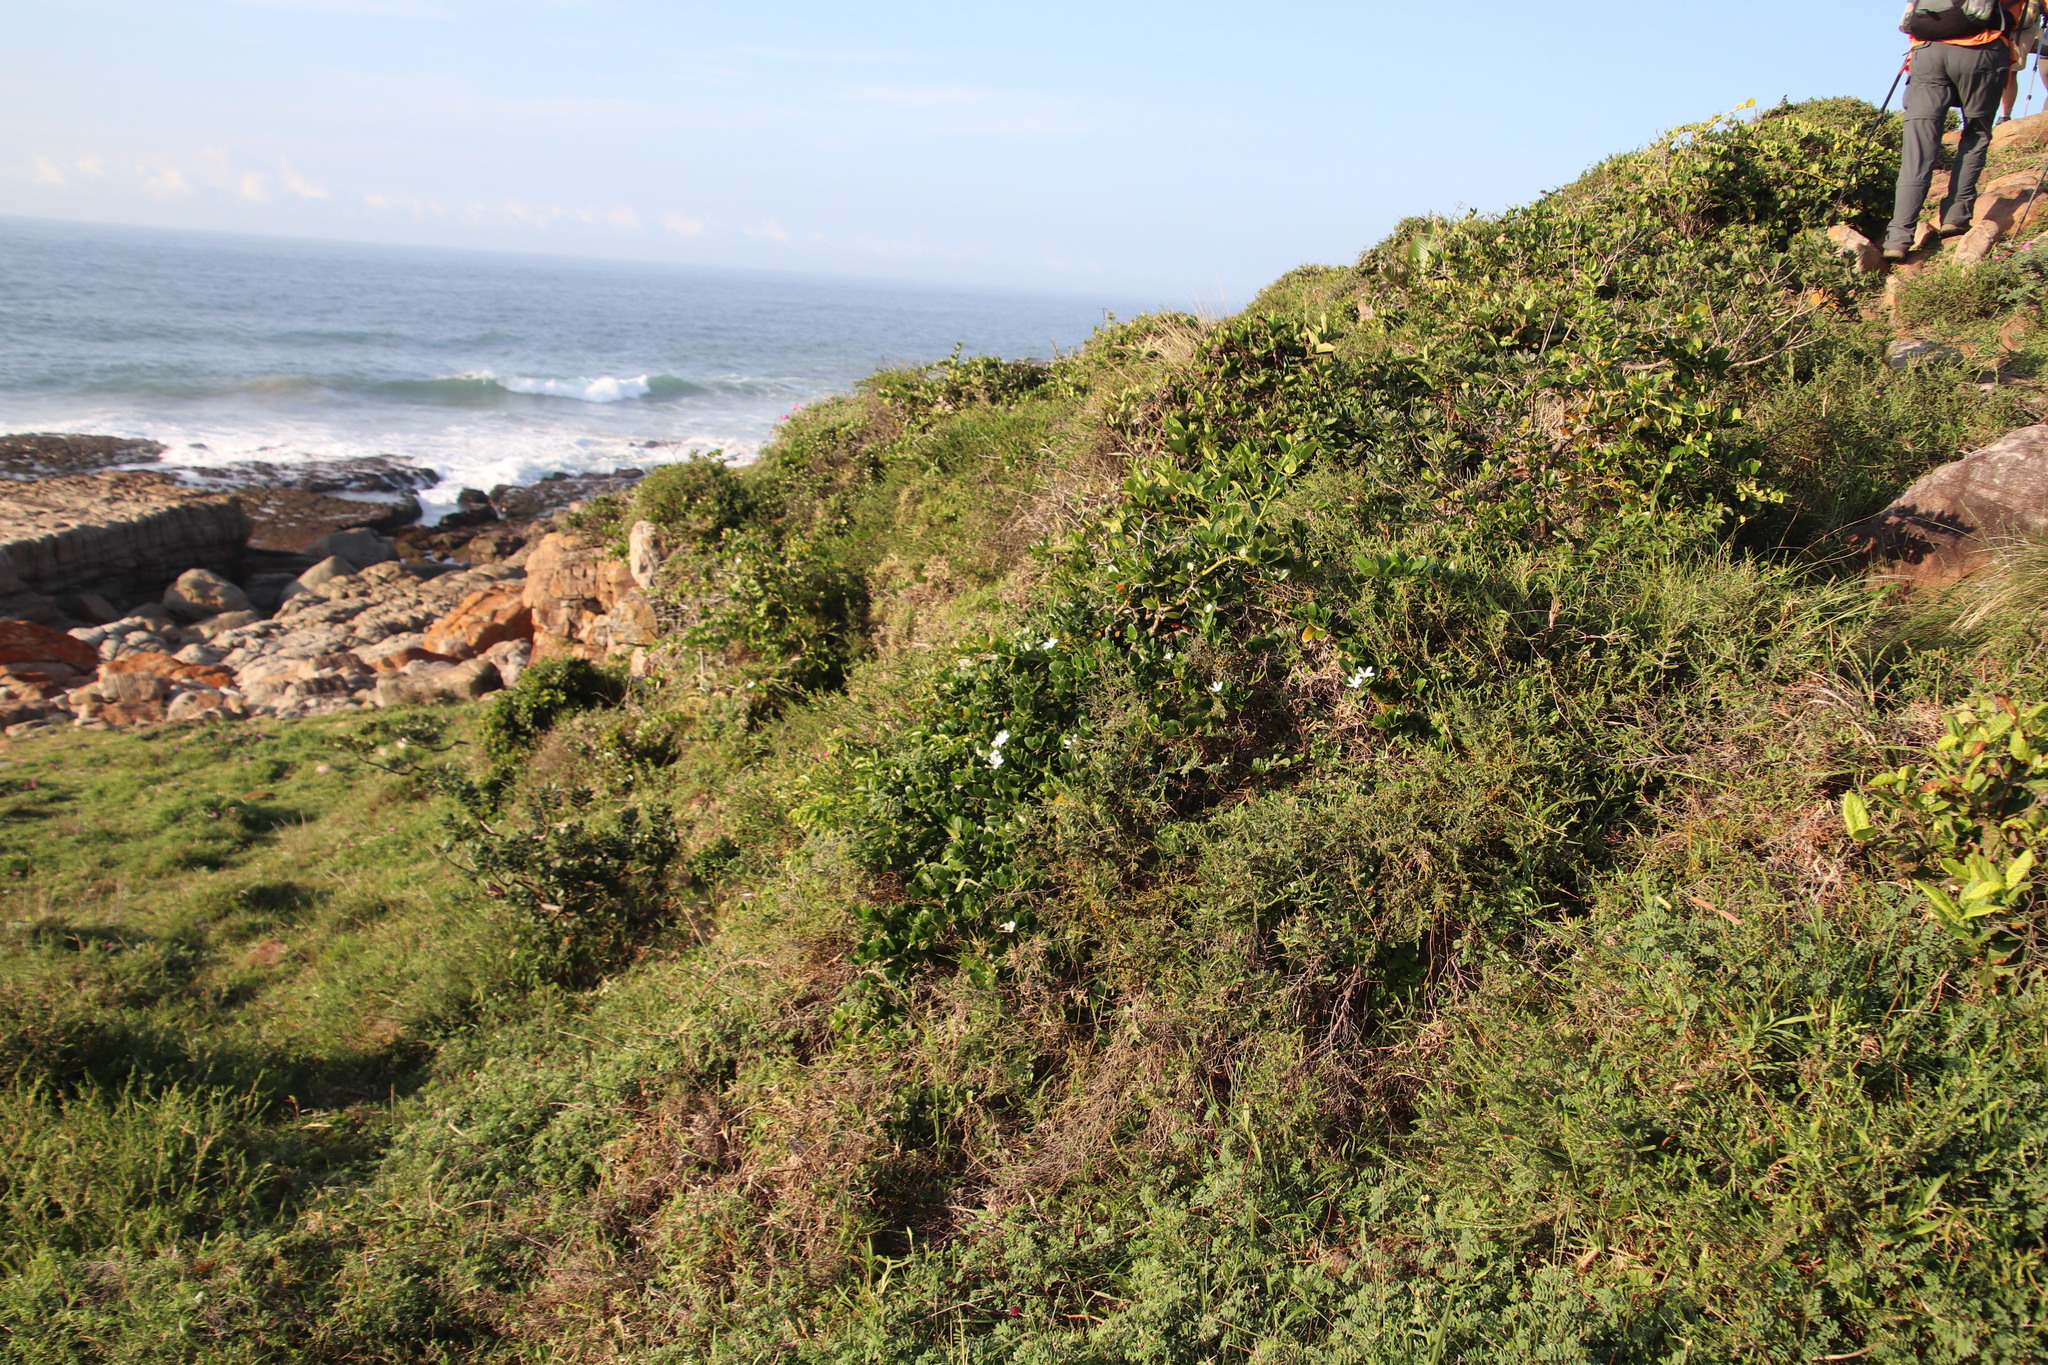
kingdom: Plantae
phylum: Tracheophyta
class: Magnoliopsida
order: Gentianales
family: Apocynaceae
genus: Carissa
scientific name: Carissa macrocarpa
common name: Natal plum
